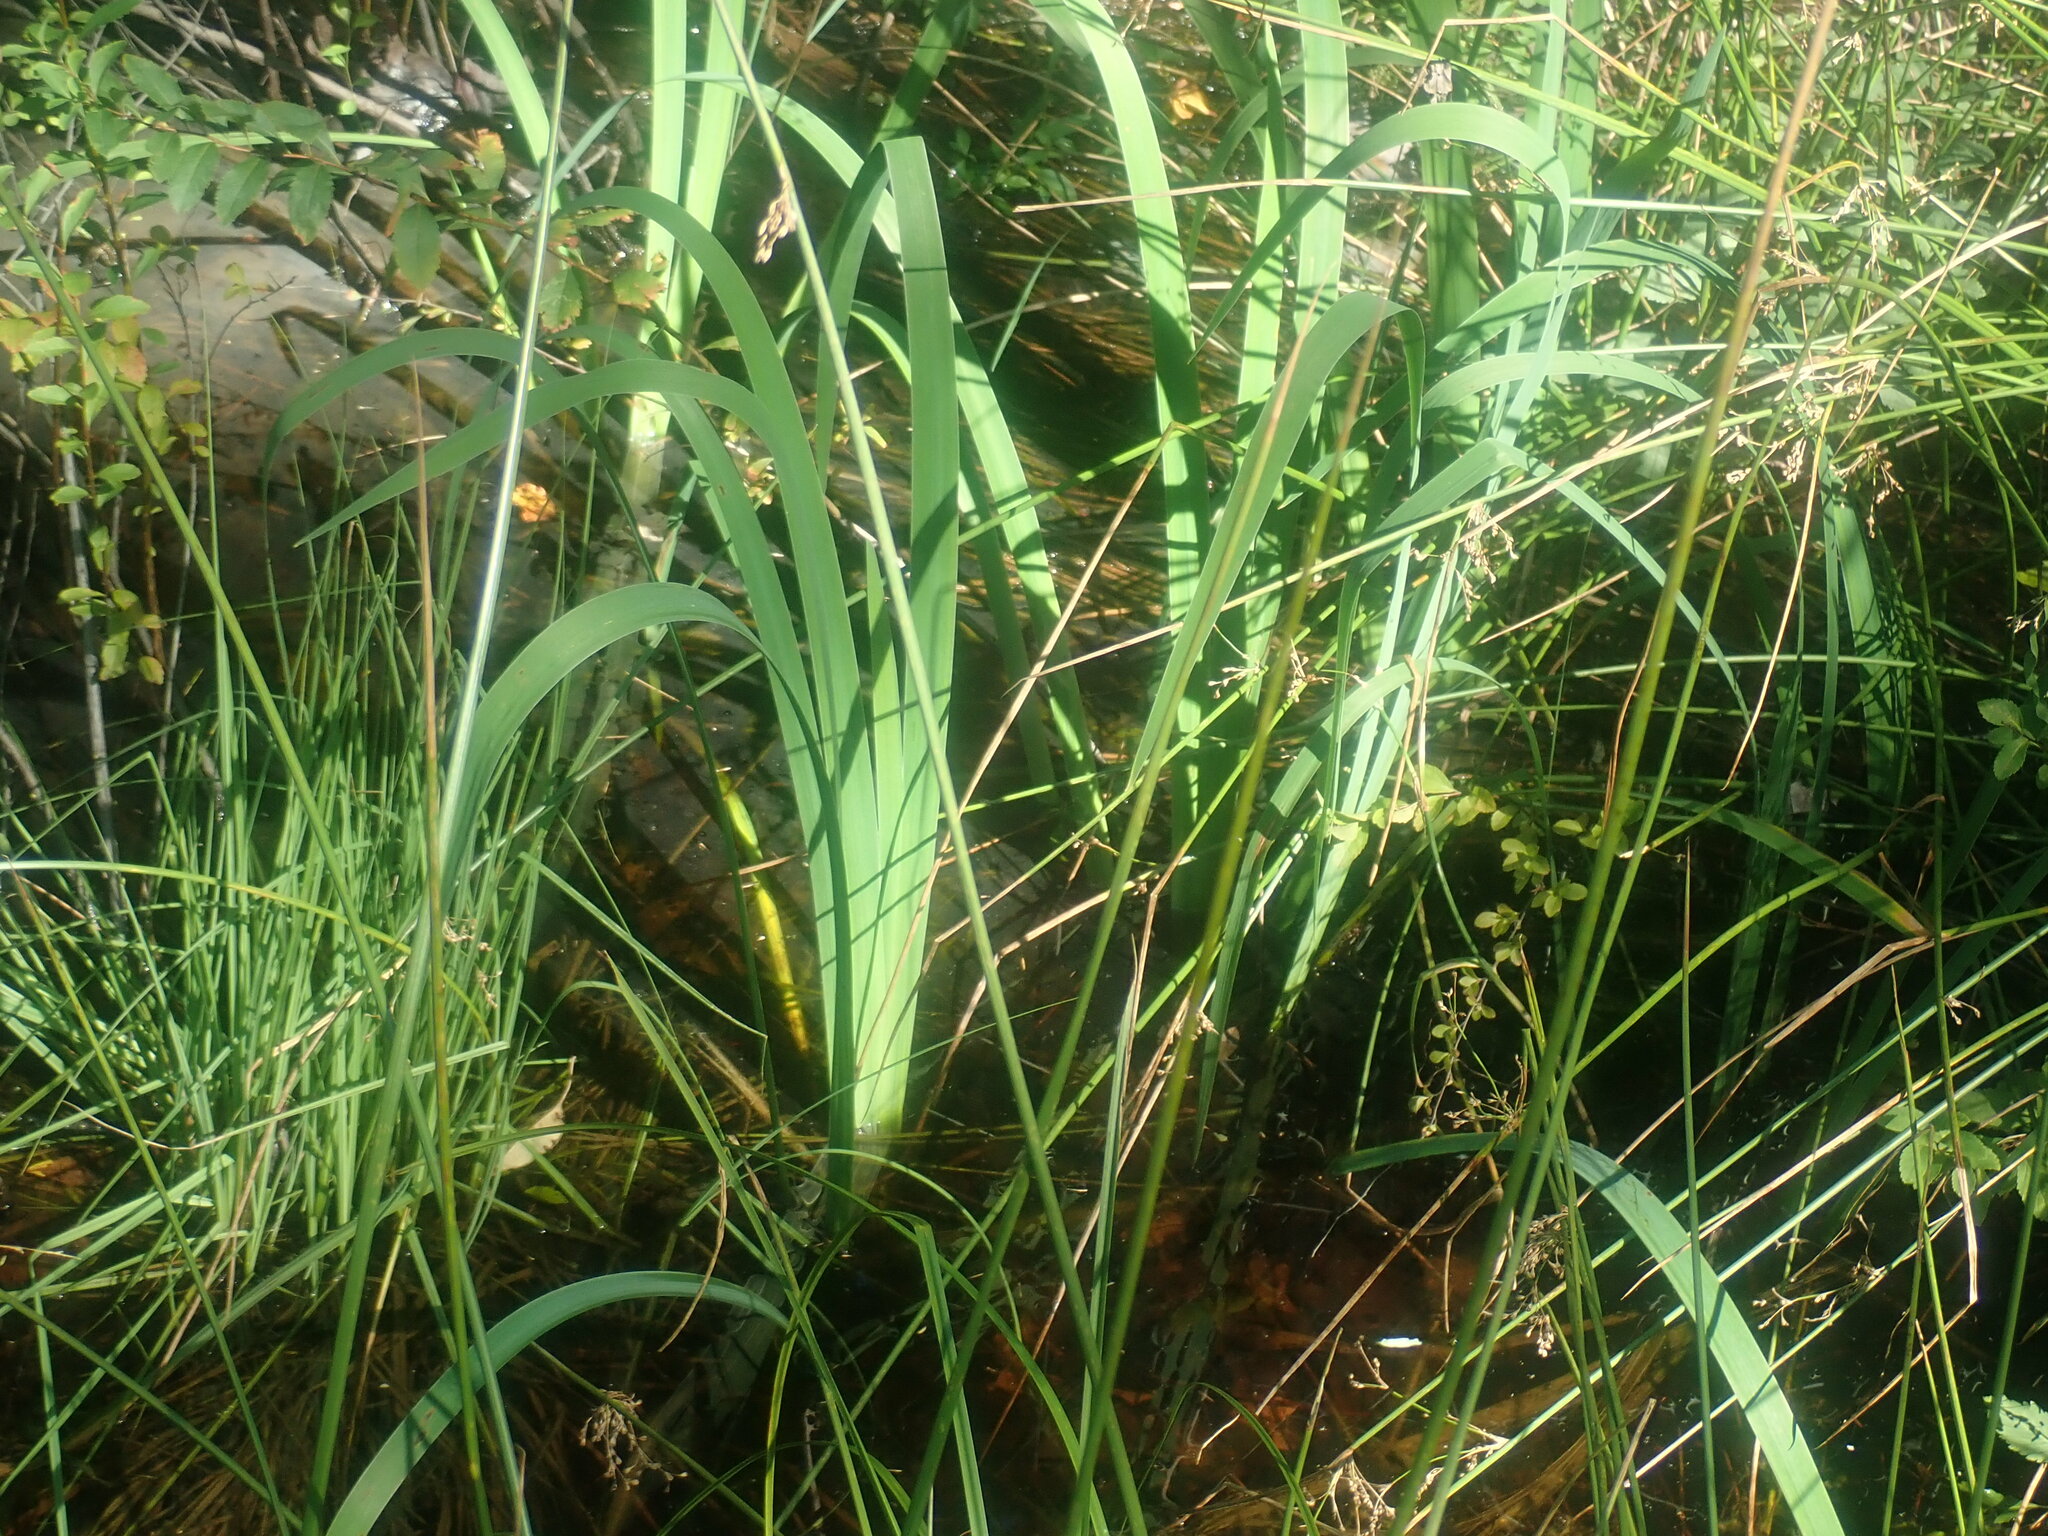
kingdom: Plantae
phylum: Tracheophyta
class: Liliopsida
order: Asparagales
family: Iridaceae
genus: Iris
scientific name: Iris
